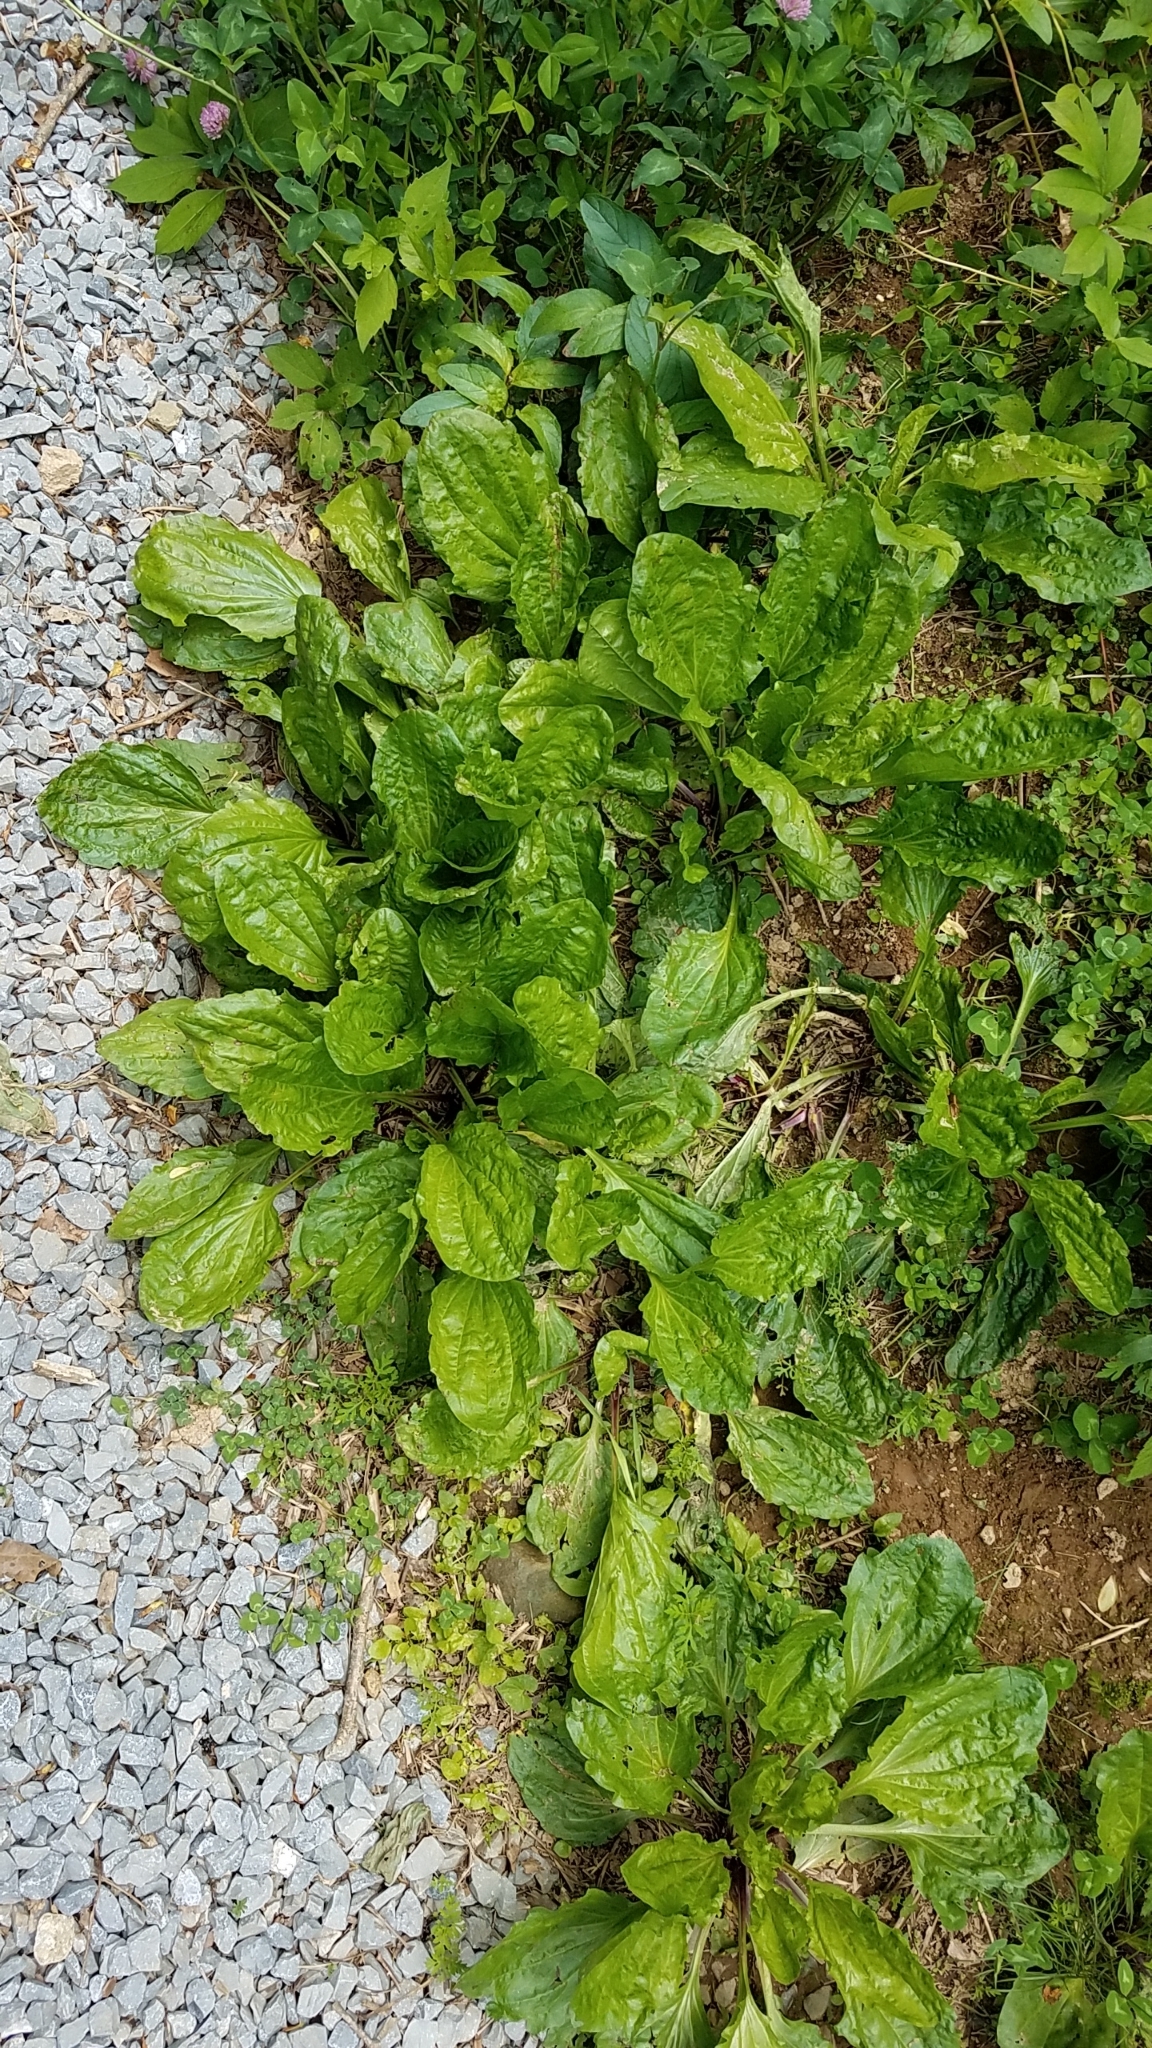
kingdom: Plantae
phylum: Tracheophyta
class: Magnoliopsida
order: Lamiales
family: Plantaginaceae
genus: Plantago
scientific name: Plantago rugelii
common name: American plantain
